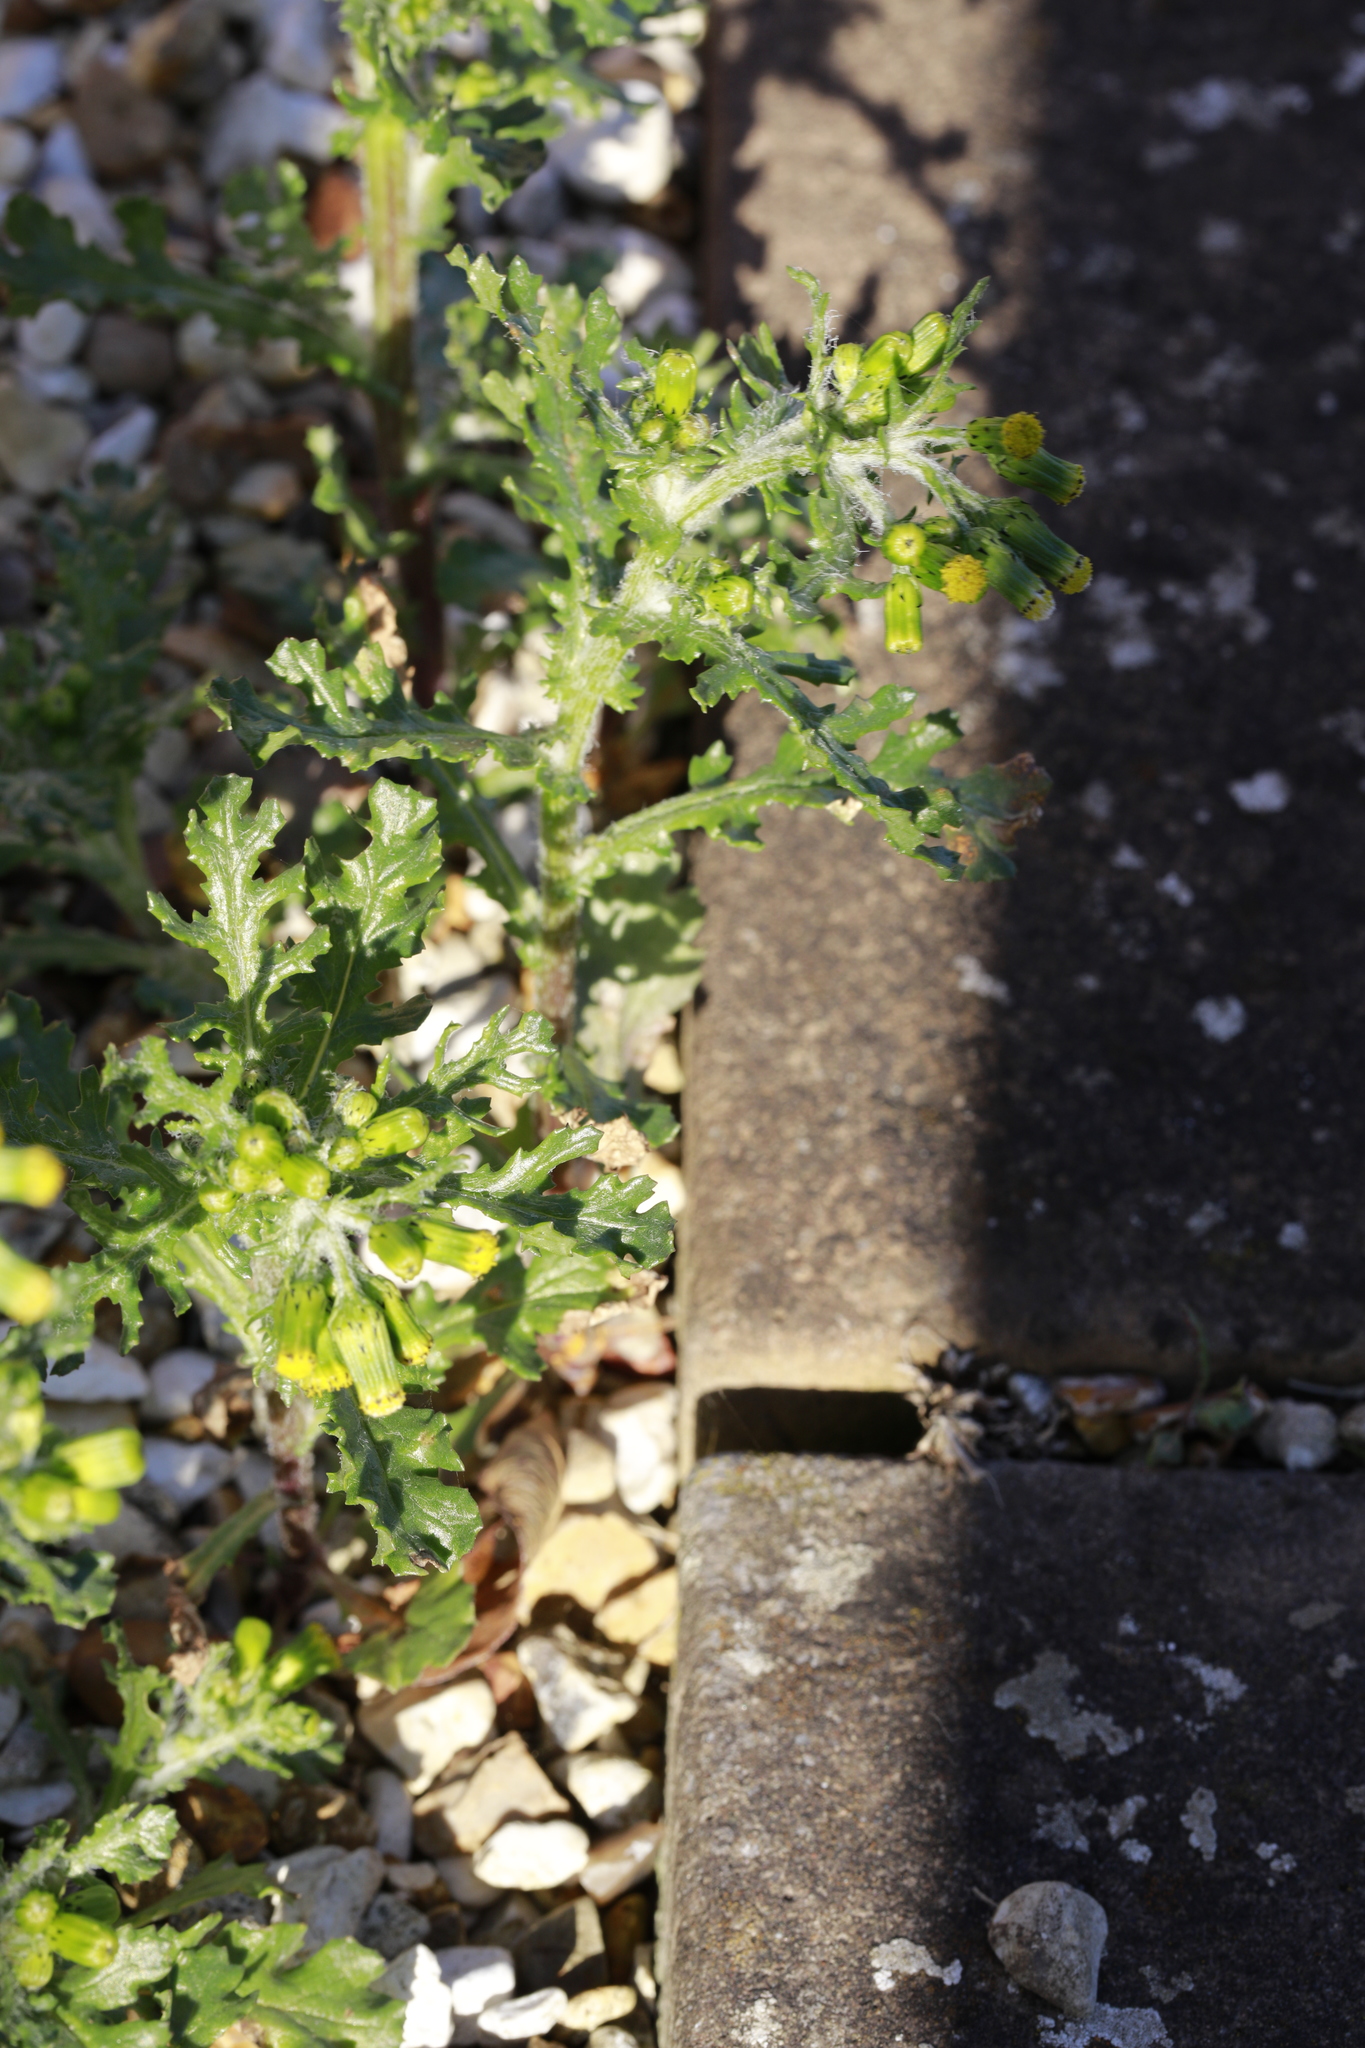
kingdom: Plantae
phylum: Tracheophyta
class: Magnoliopsida
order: Asterales
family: Asteraceae
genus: Senecio
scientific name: Senecio vulgaris
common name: Old-man-in-the-spring
